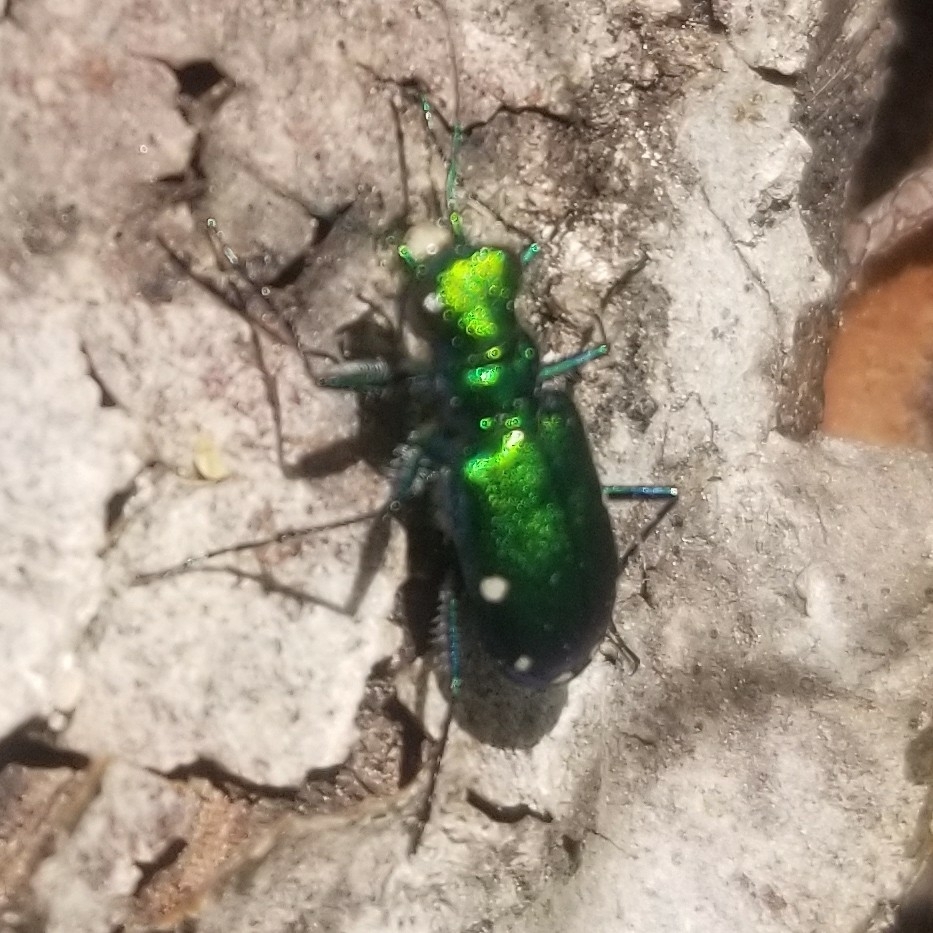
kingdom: Animalia
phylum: Arthropoda
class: Insecta
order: Coleoptera
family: Carabidae
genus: Cicindela
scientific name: Cicindela sexguttata
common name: Six-spotted tiger beetle
